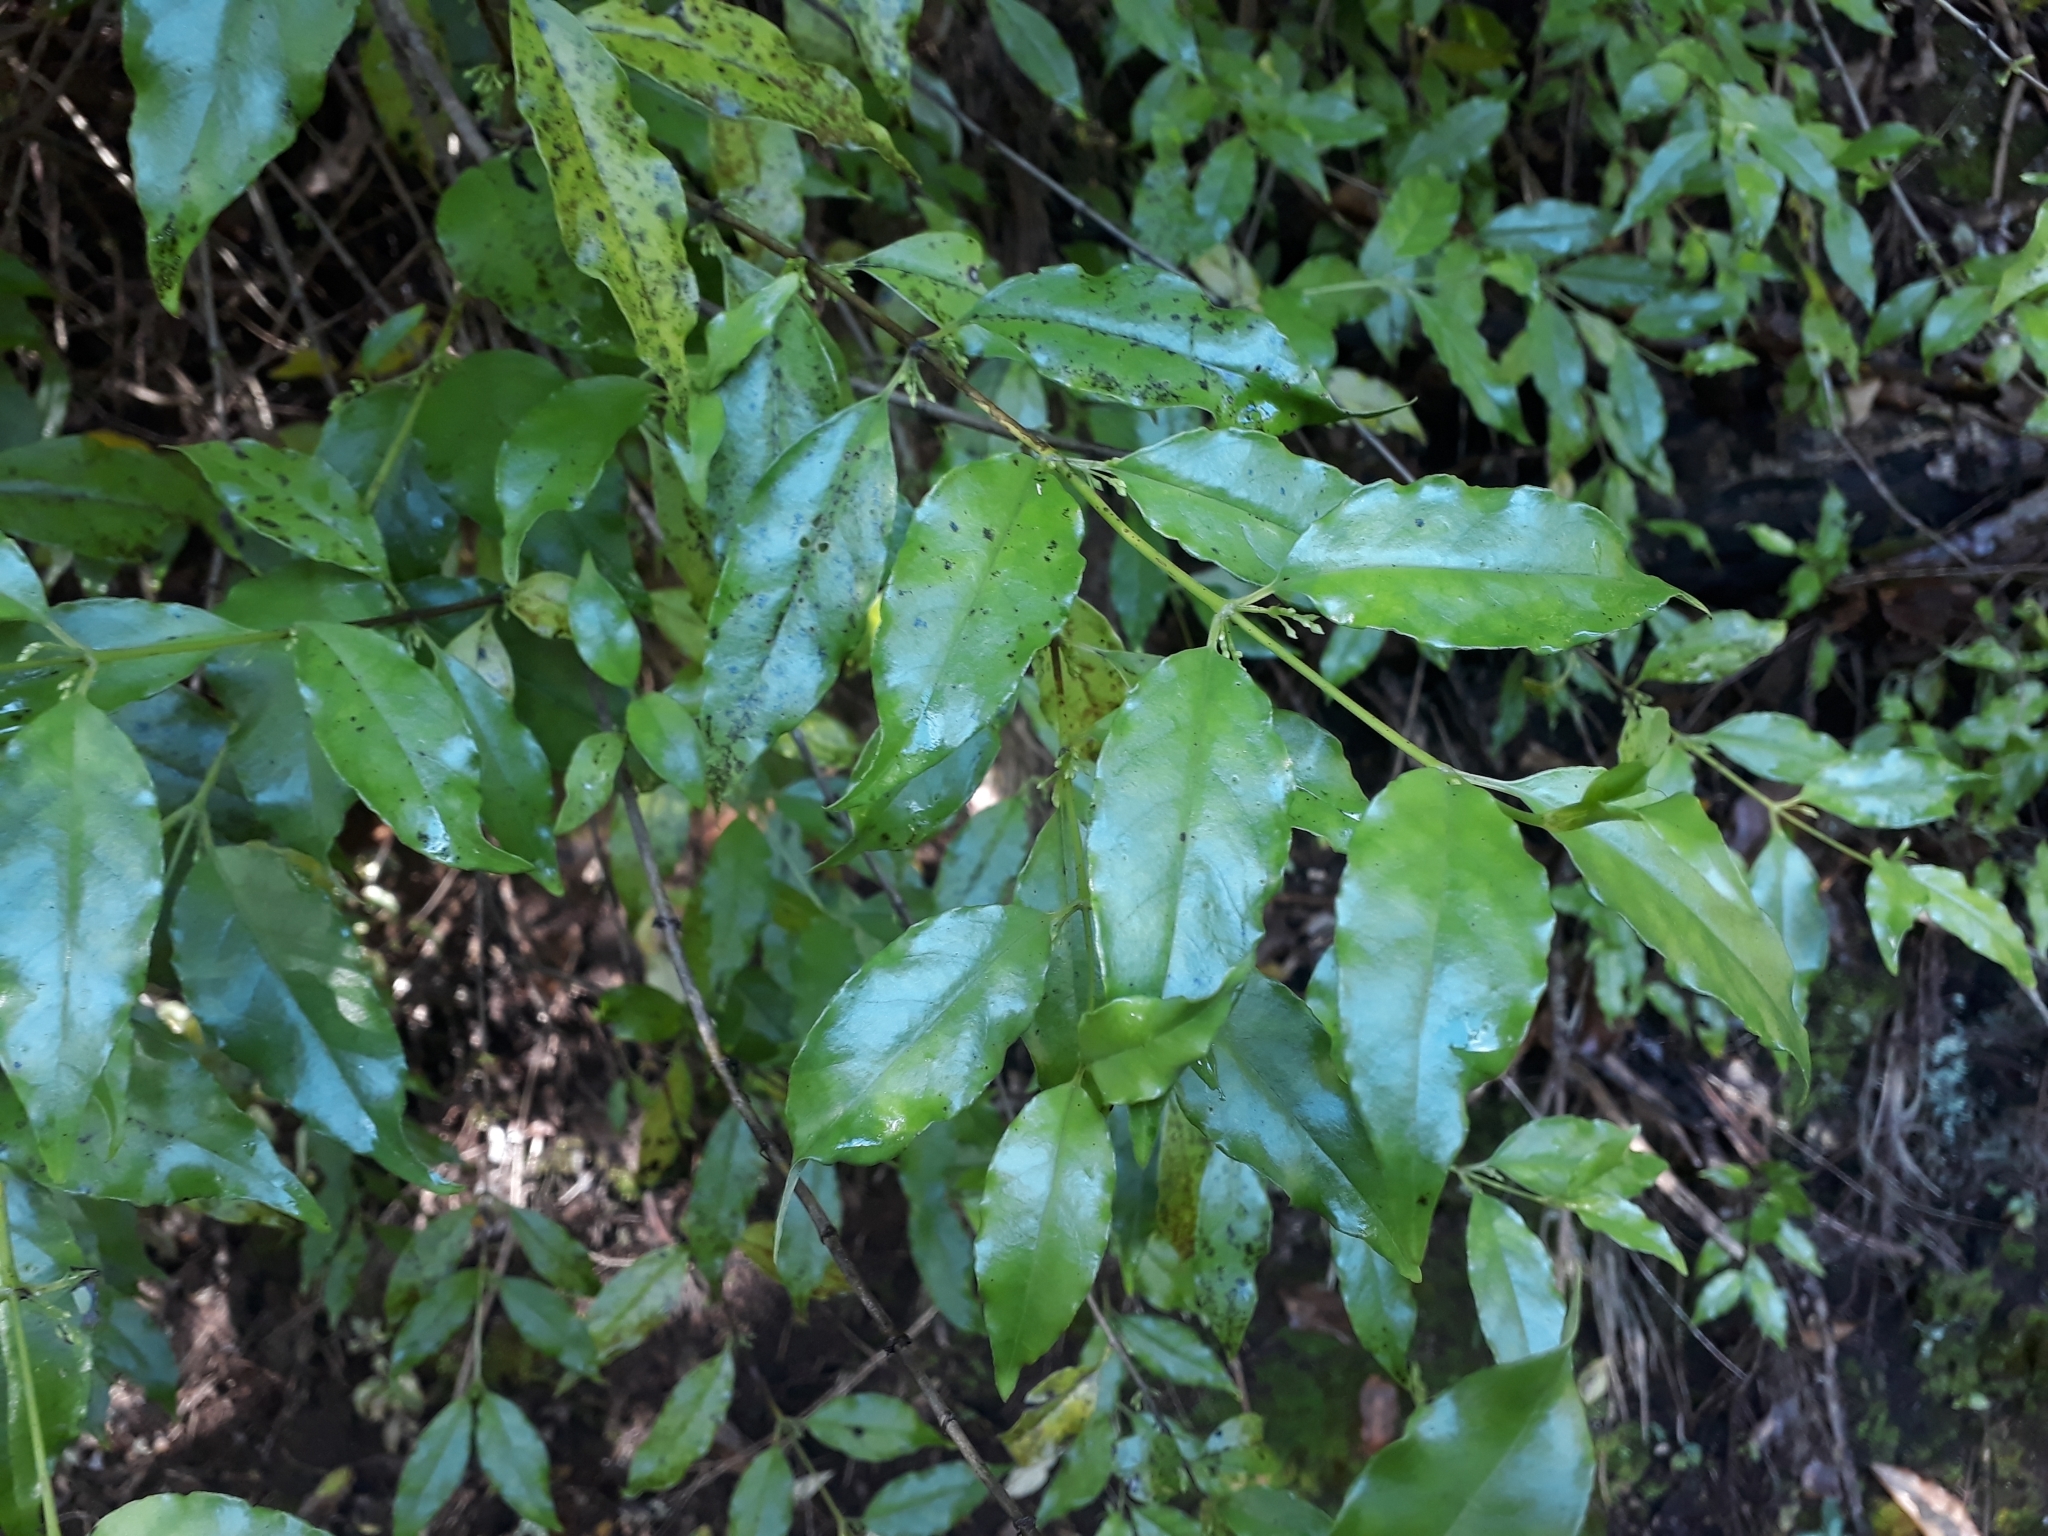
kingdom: Plantae
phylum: Tracheophyta
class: Magnoliopsida
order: Gentianales
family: Loganiaceae
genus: Geniostoma
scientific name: Geniostoma ligustrifolium
